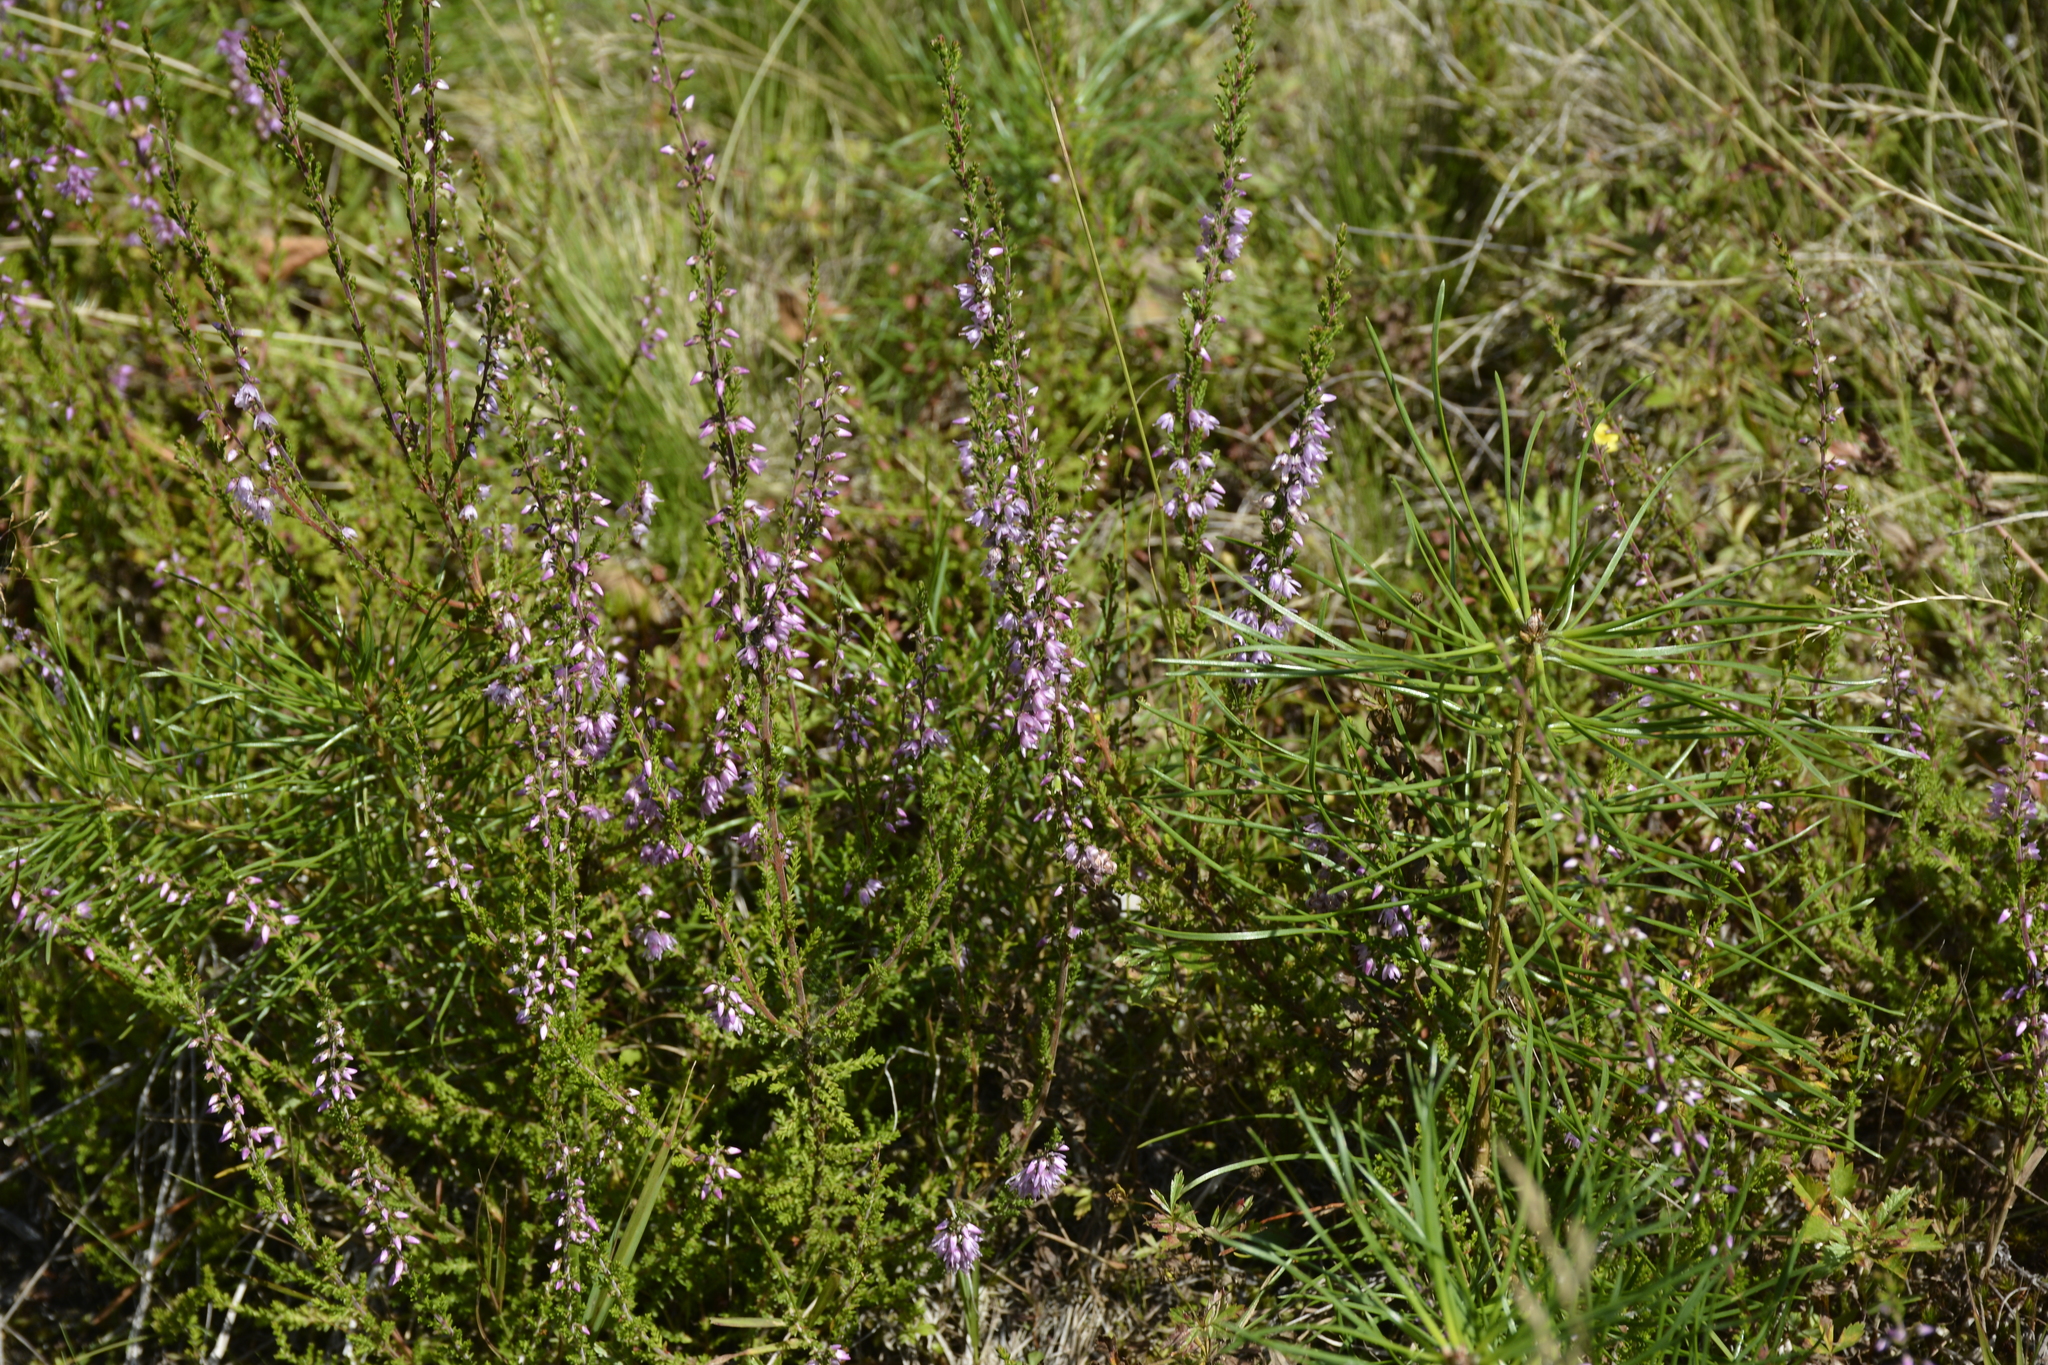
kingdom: Plantae
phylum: Tracheophyta
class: Magnoliopsida
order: Ericales
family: Ericaceae
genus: Calluna
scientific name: Calluna vulgaris
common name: Heather
